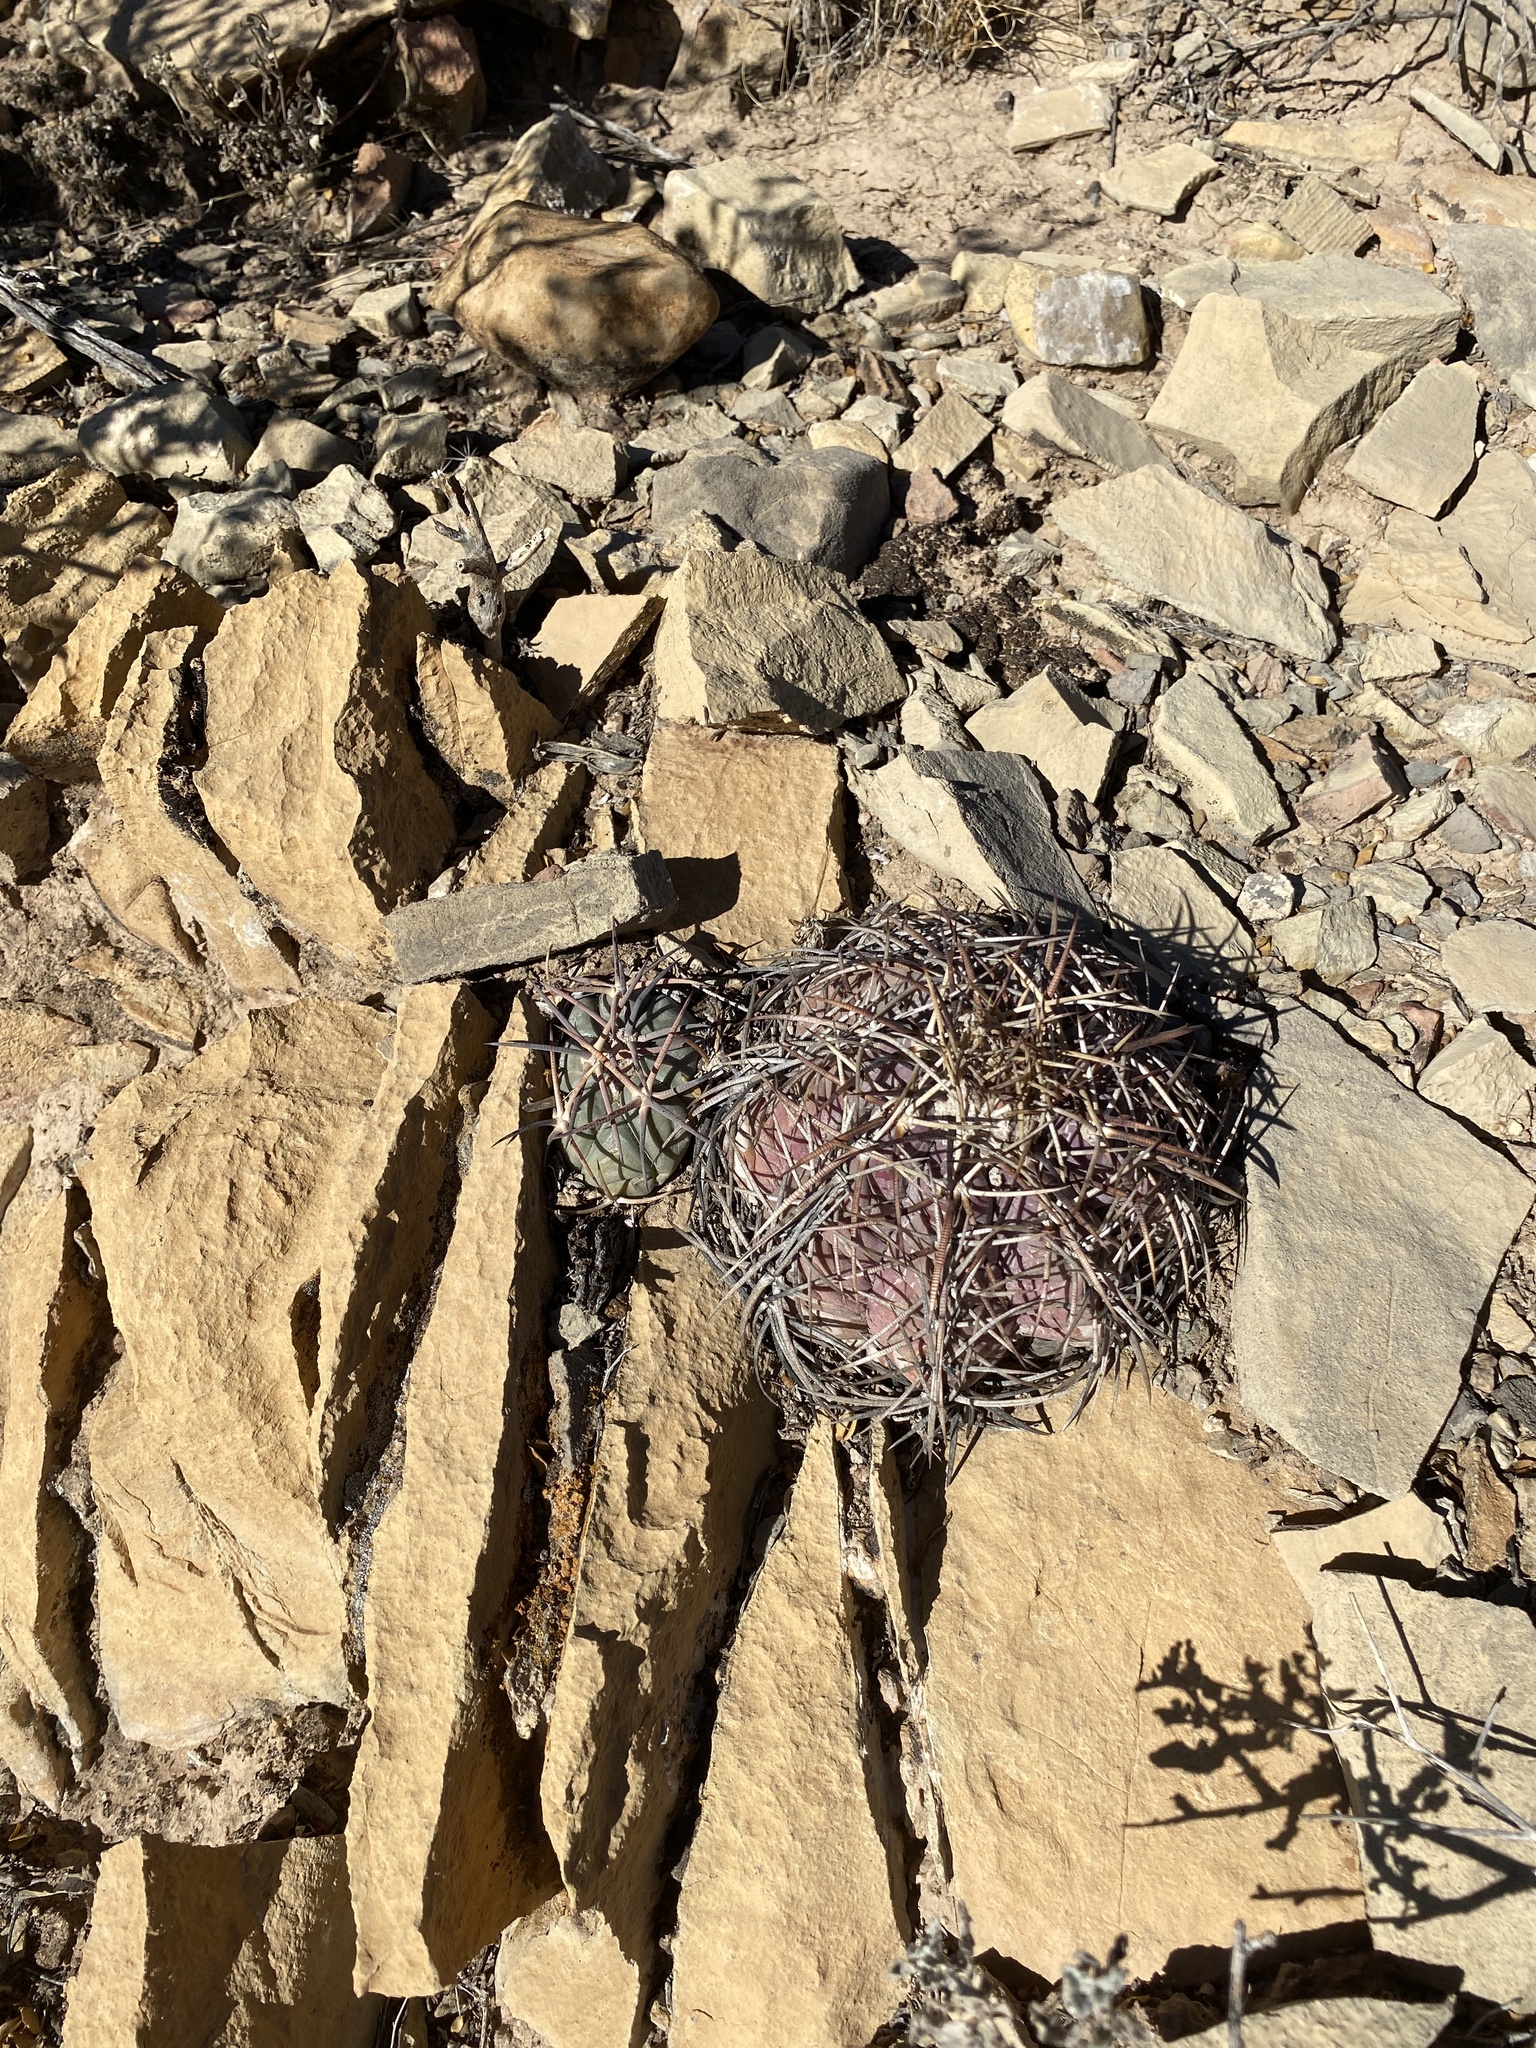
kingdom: Plantae
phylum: Tracheophyta
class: Magnoliopsida
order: Caryophyllales
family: Cactaceae
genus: Echinocactus
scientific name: Echinocactus horizonthalonius
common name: Devilshead
